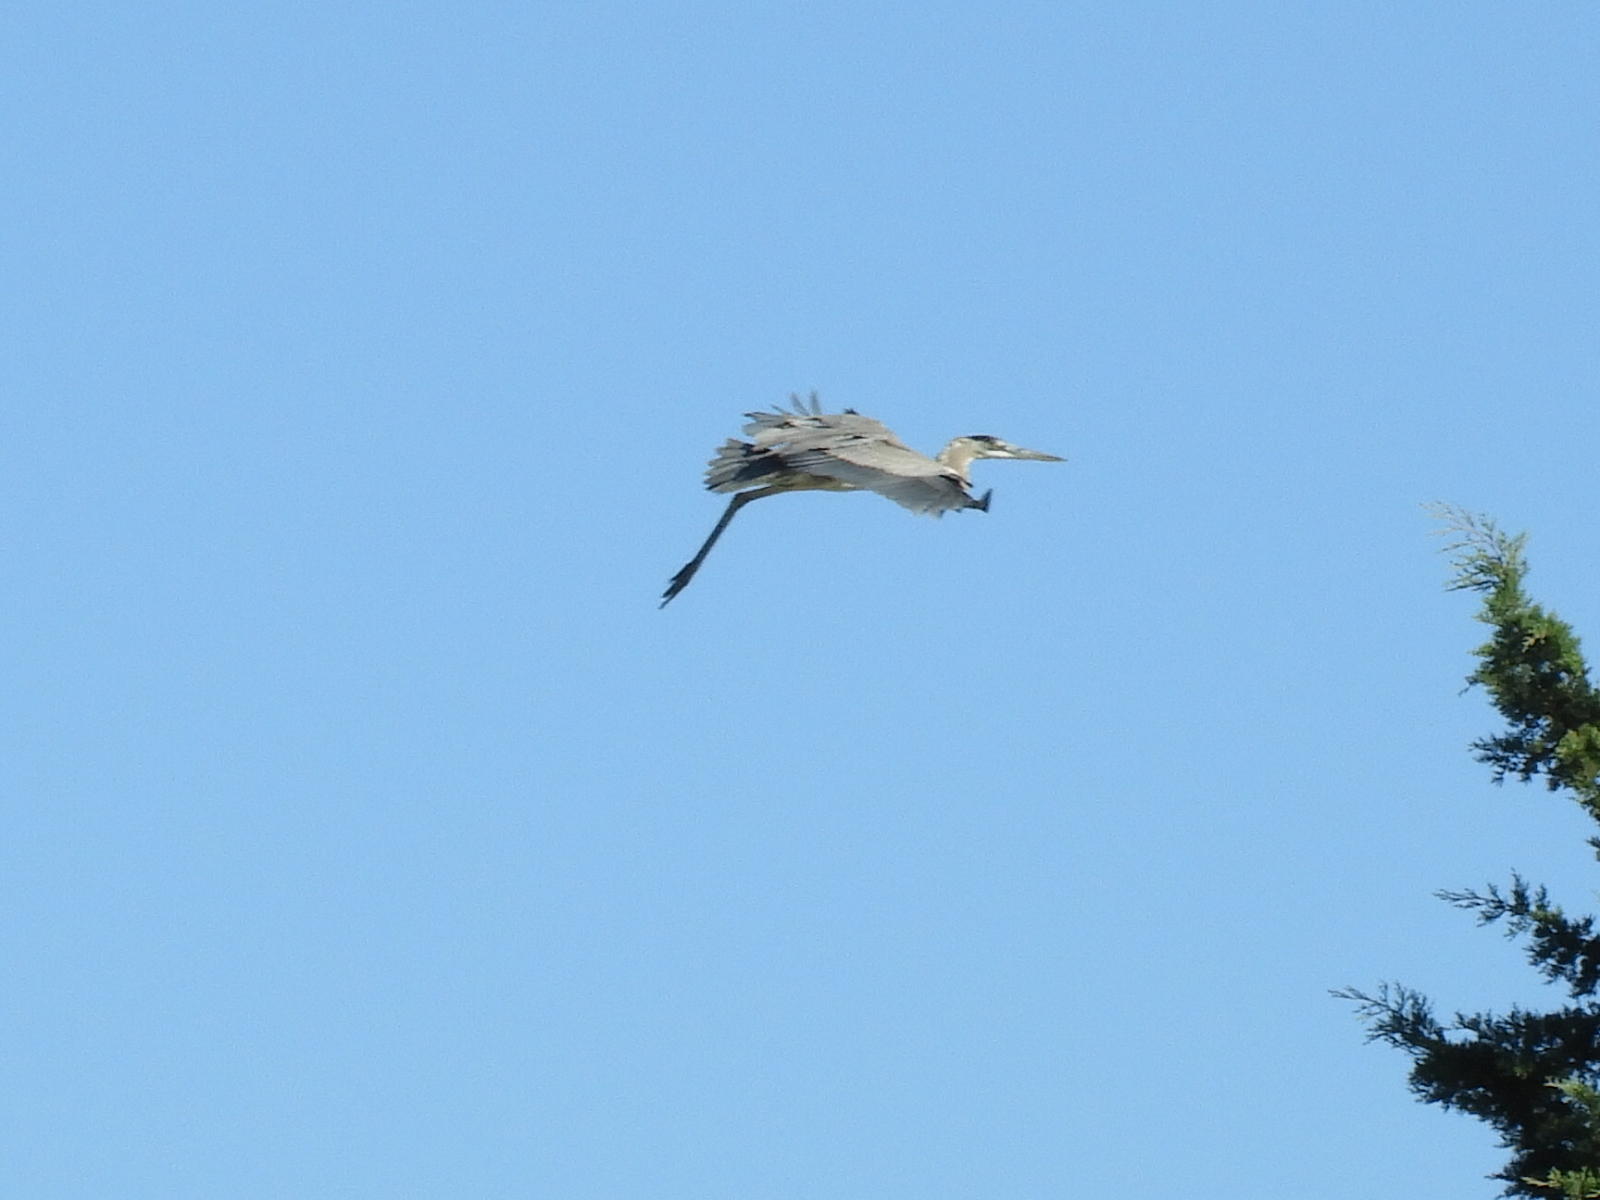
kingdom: Animalia
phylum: Chordata
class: Aves
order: Pelecaniformes
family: Ardeidae
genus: Ardea
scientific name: Ardea herodias
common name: Great blue heron
